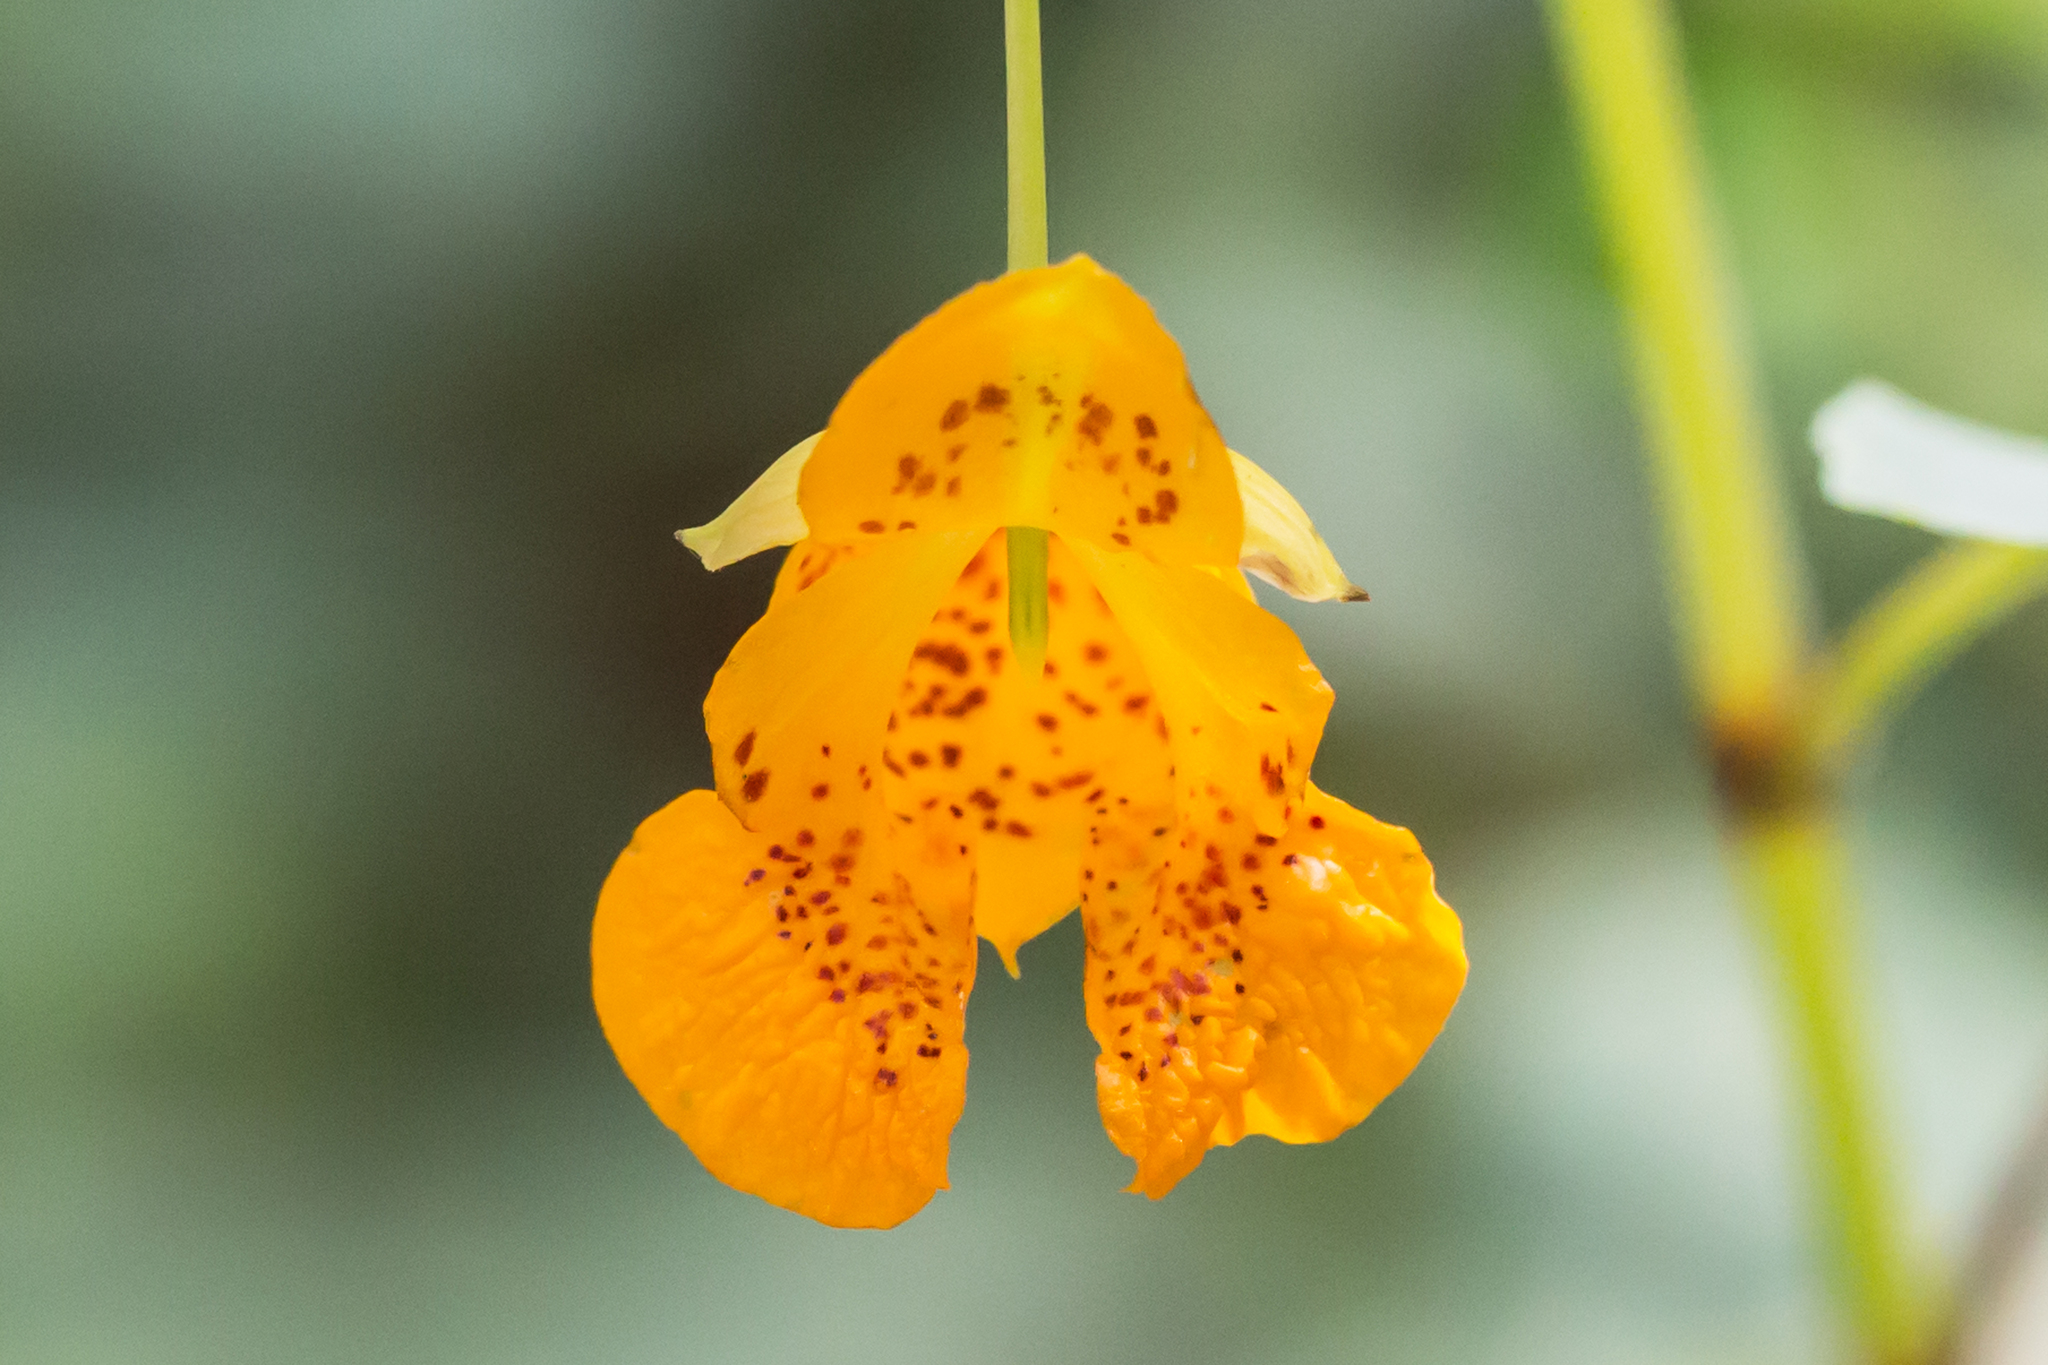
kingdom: Plantae
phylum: Tracheophyta
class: Magnoliopsida
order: Ericales
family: Balsaminaceae
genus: Impatiens
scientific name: Impatiens capensis
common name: Orange balsam
